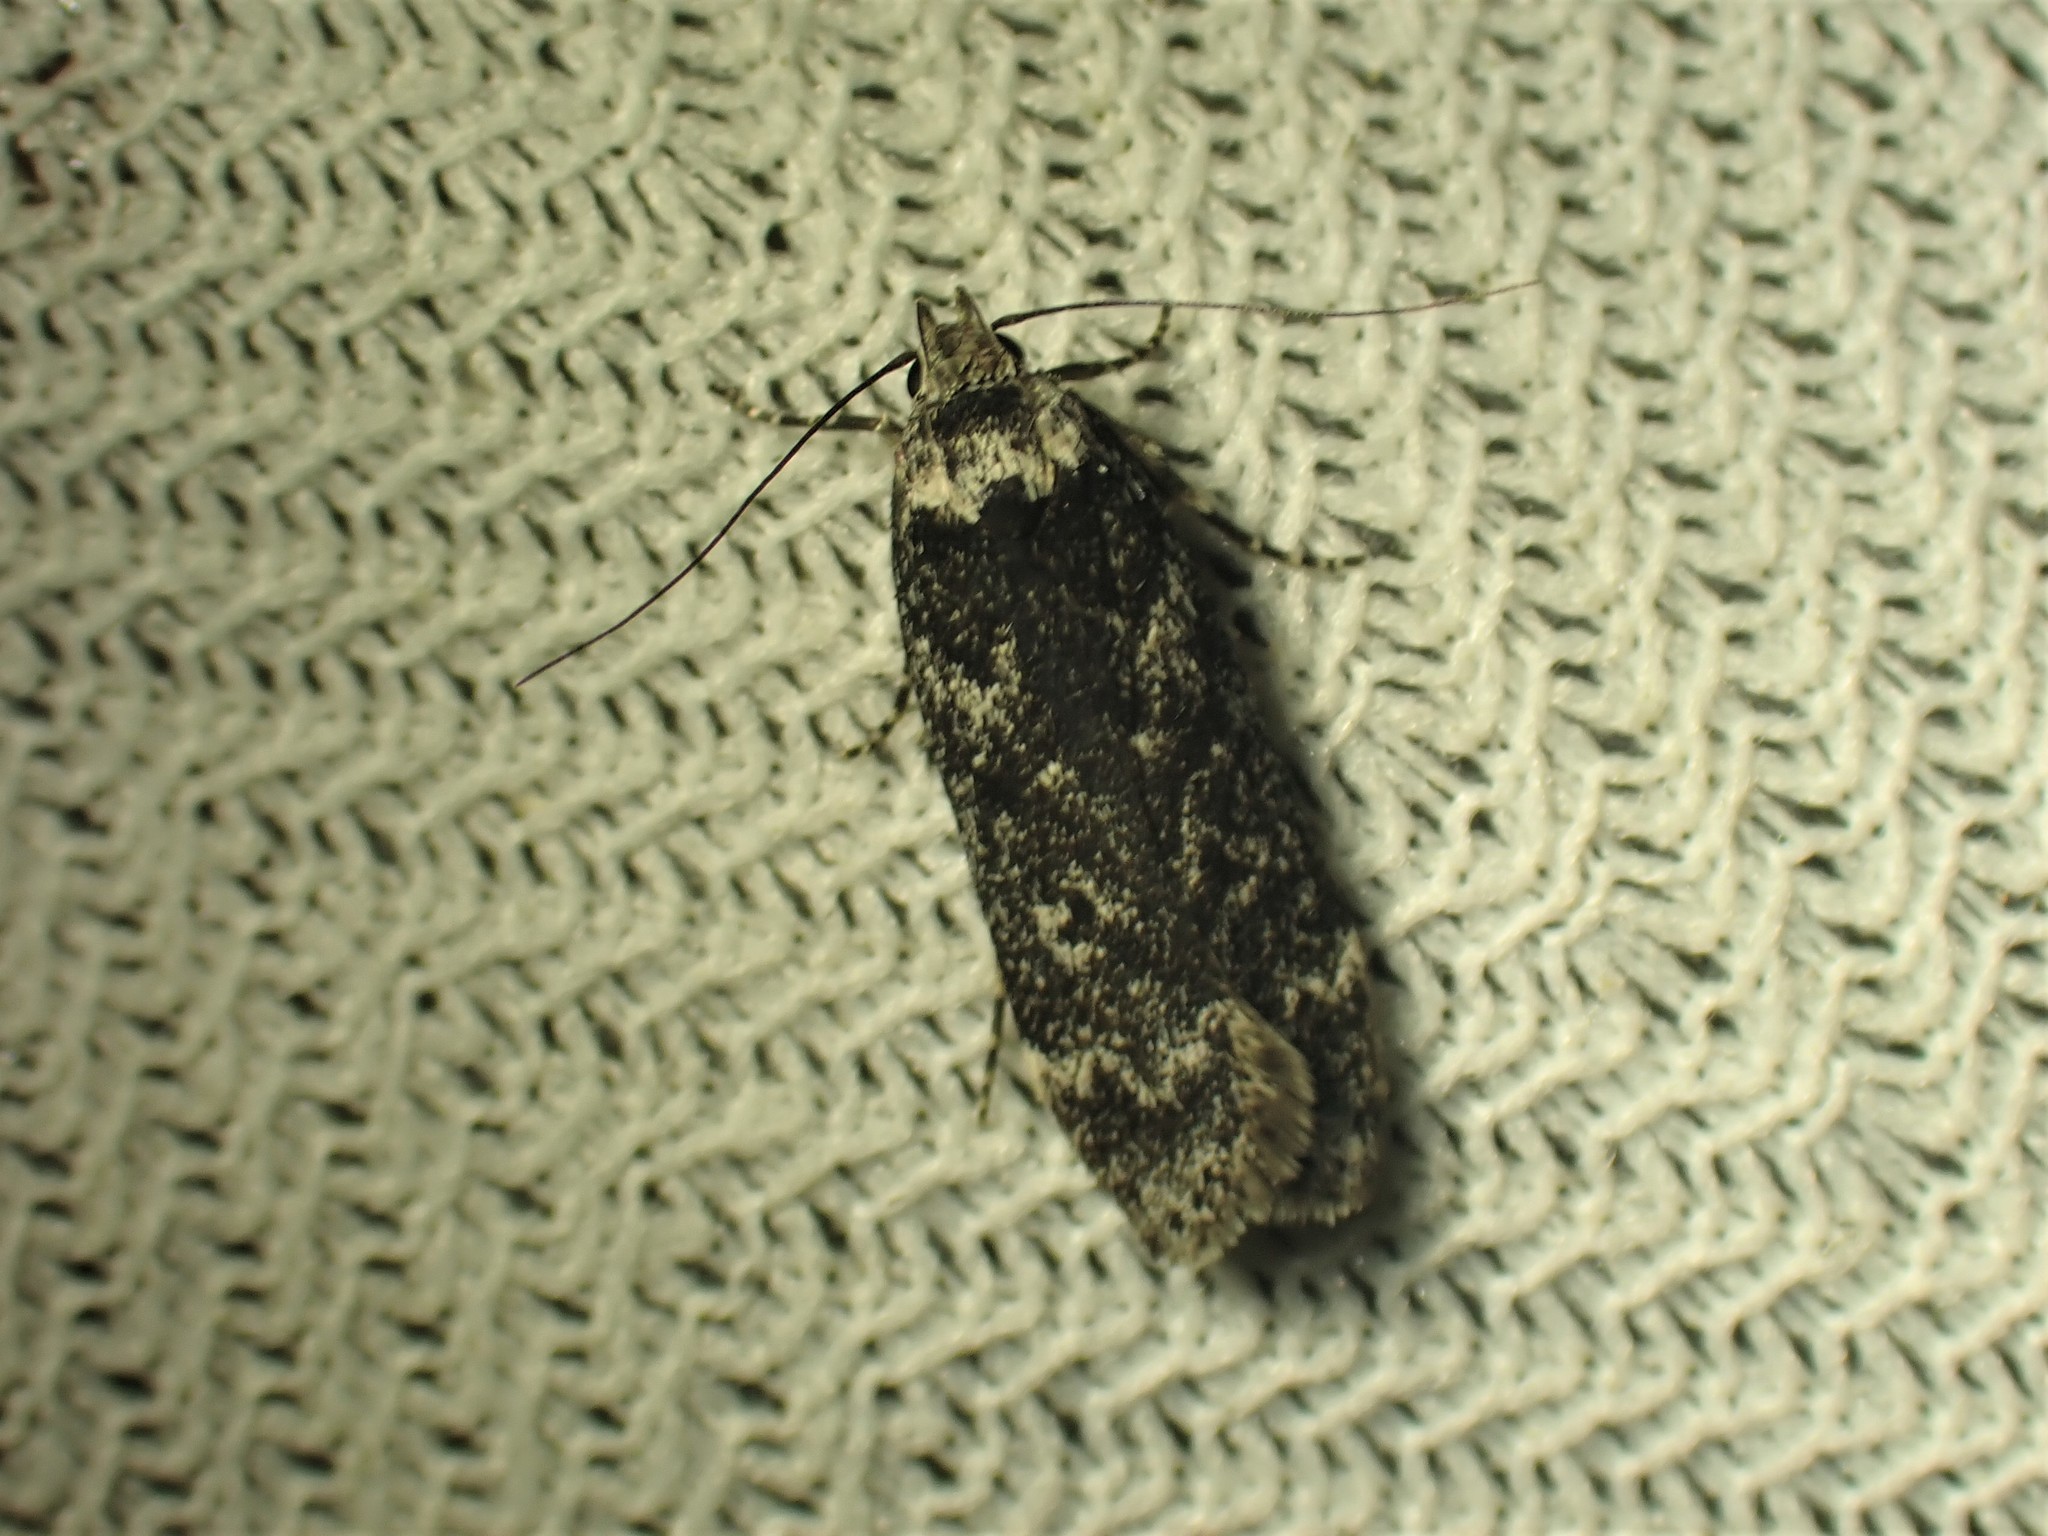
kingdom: Animalia
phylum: Arthropoda
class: Insecta
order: Lepidoptera
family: Gelechiidae
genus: Anacampsis
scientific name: Anacampsis niveopulvella
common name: Pale-headed aspen leafroller moth
